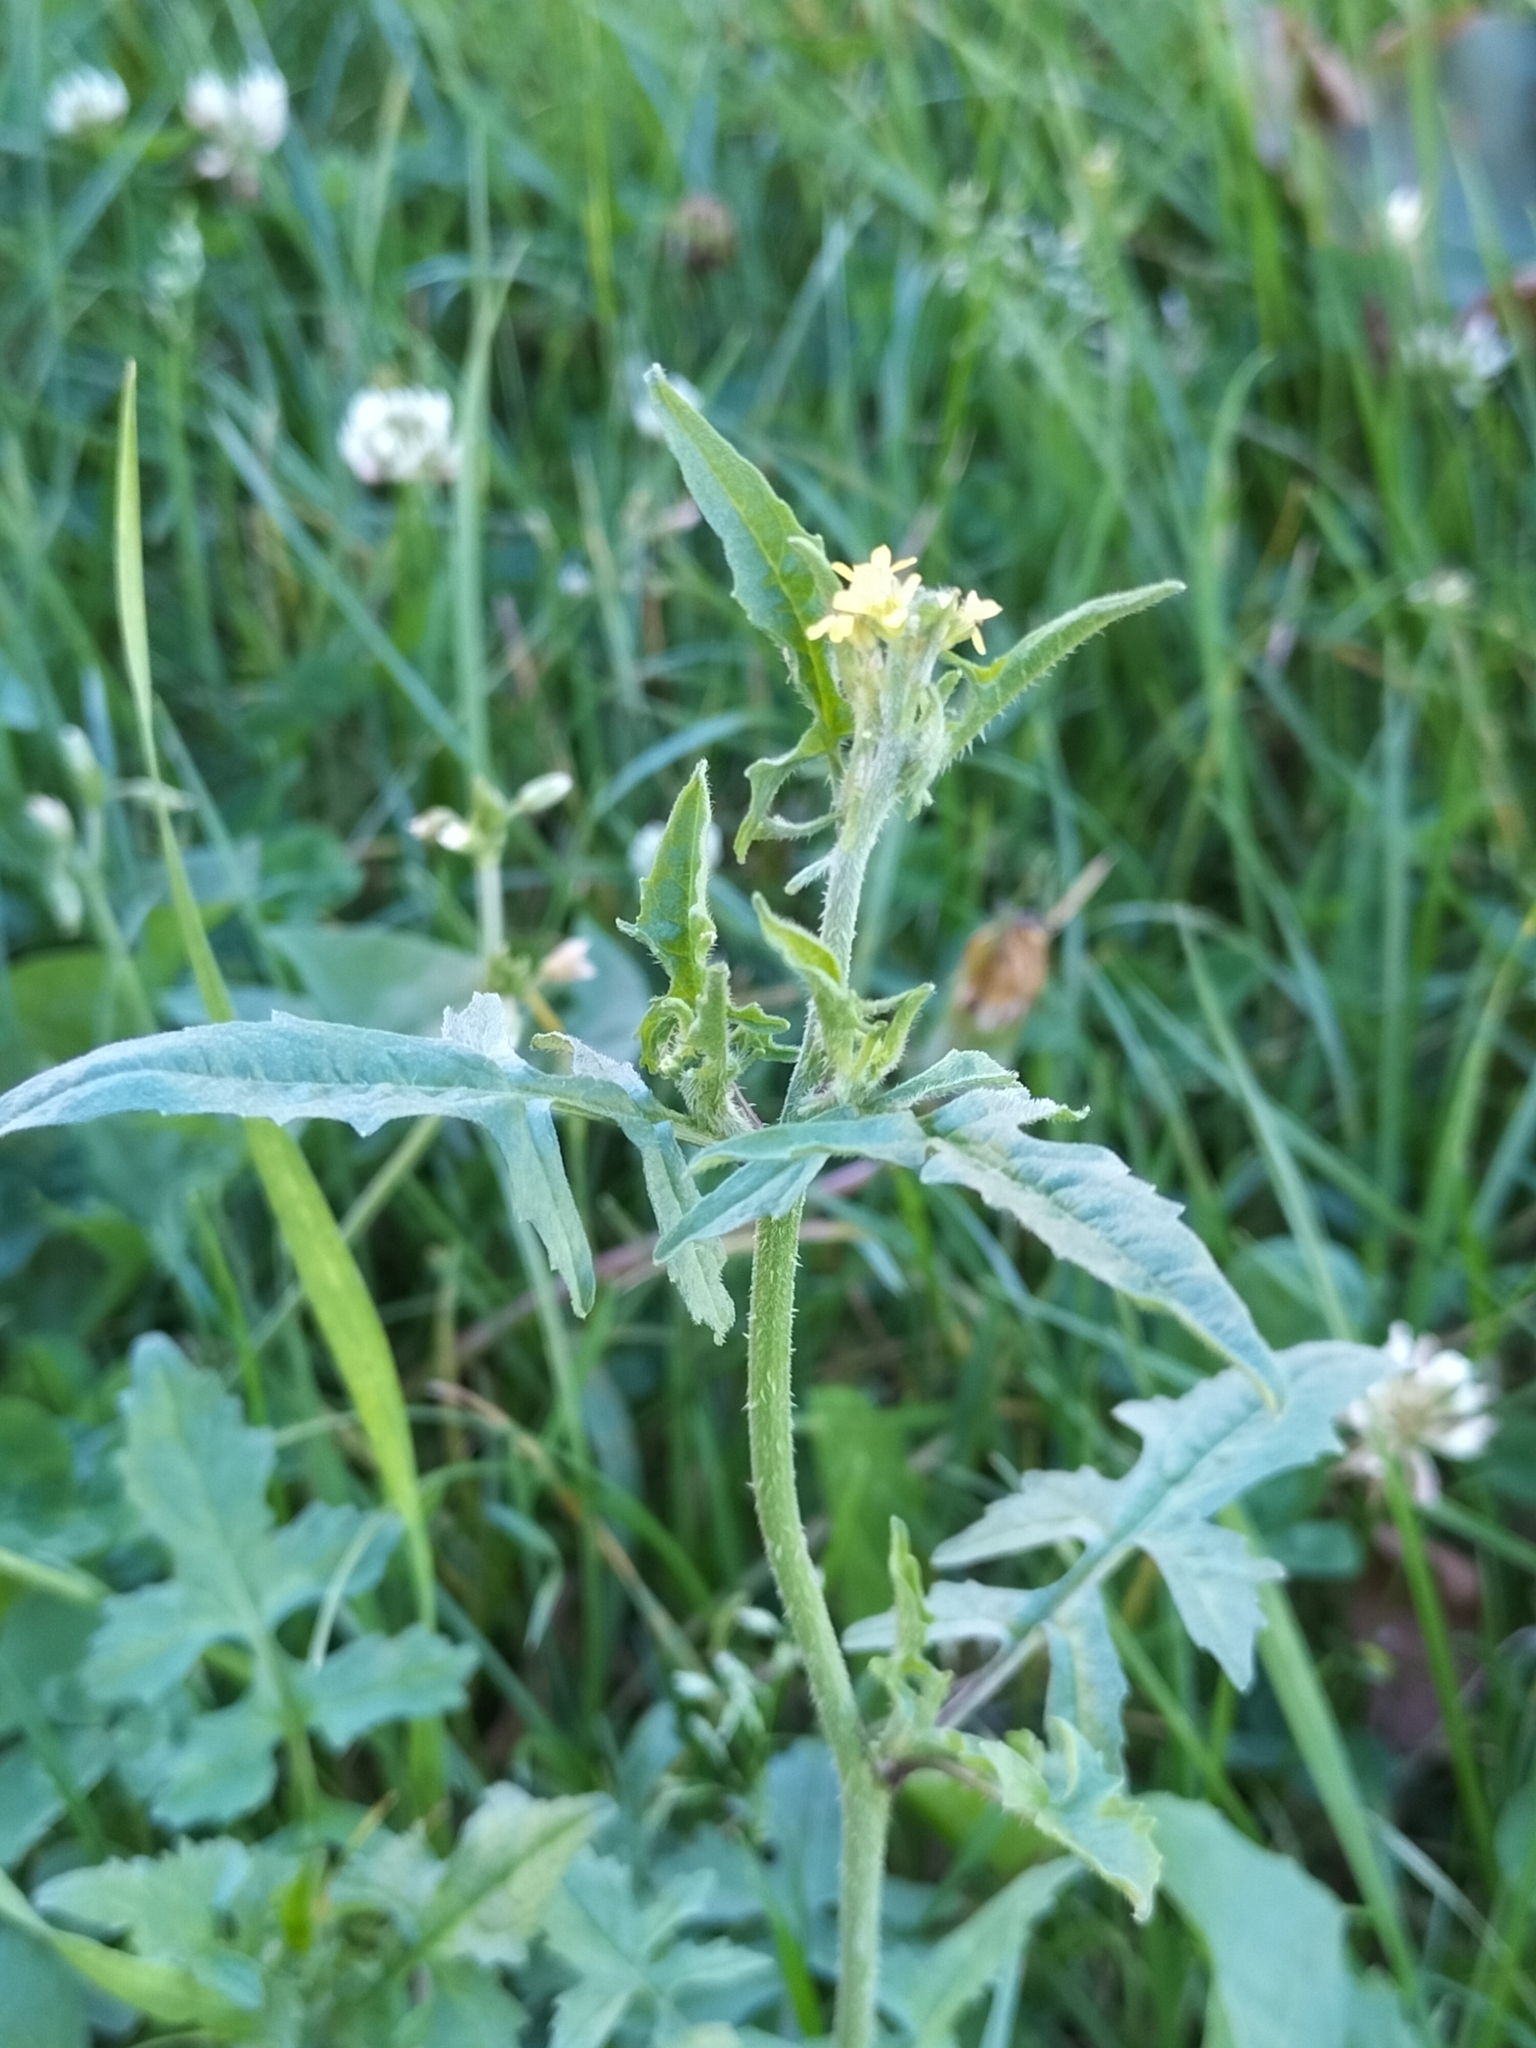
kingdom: Plantae
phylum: Tracheophyta
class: Magnoliopsida
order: Brassicales
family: Brassicaceae
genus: Sisymbrium
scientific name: Sisymbrium officinale
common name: Hedge mustard
